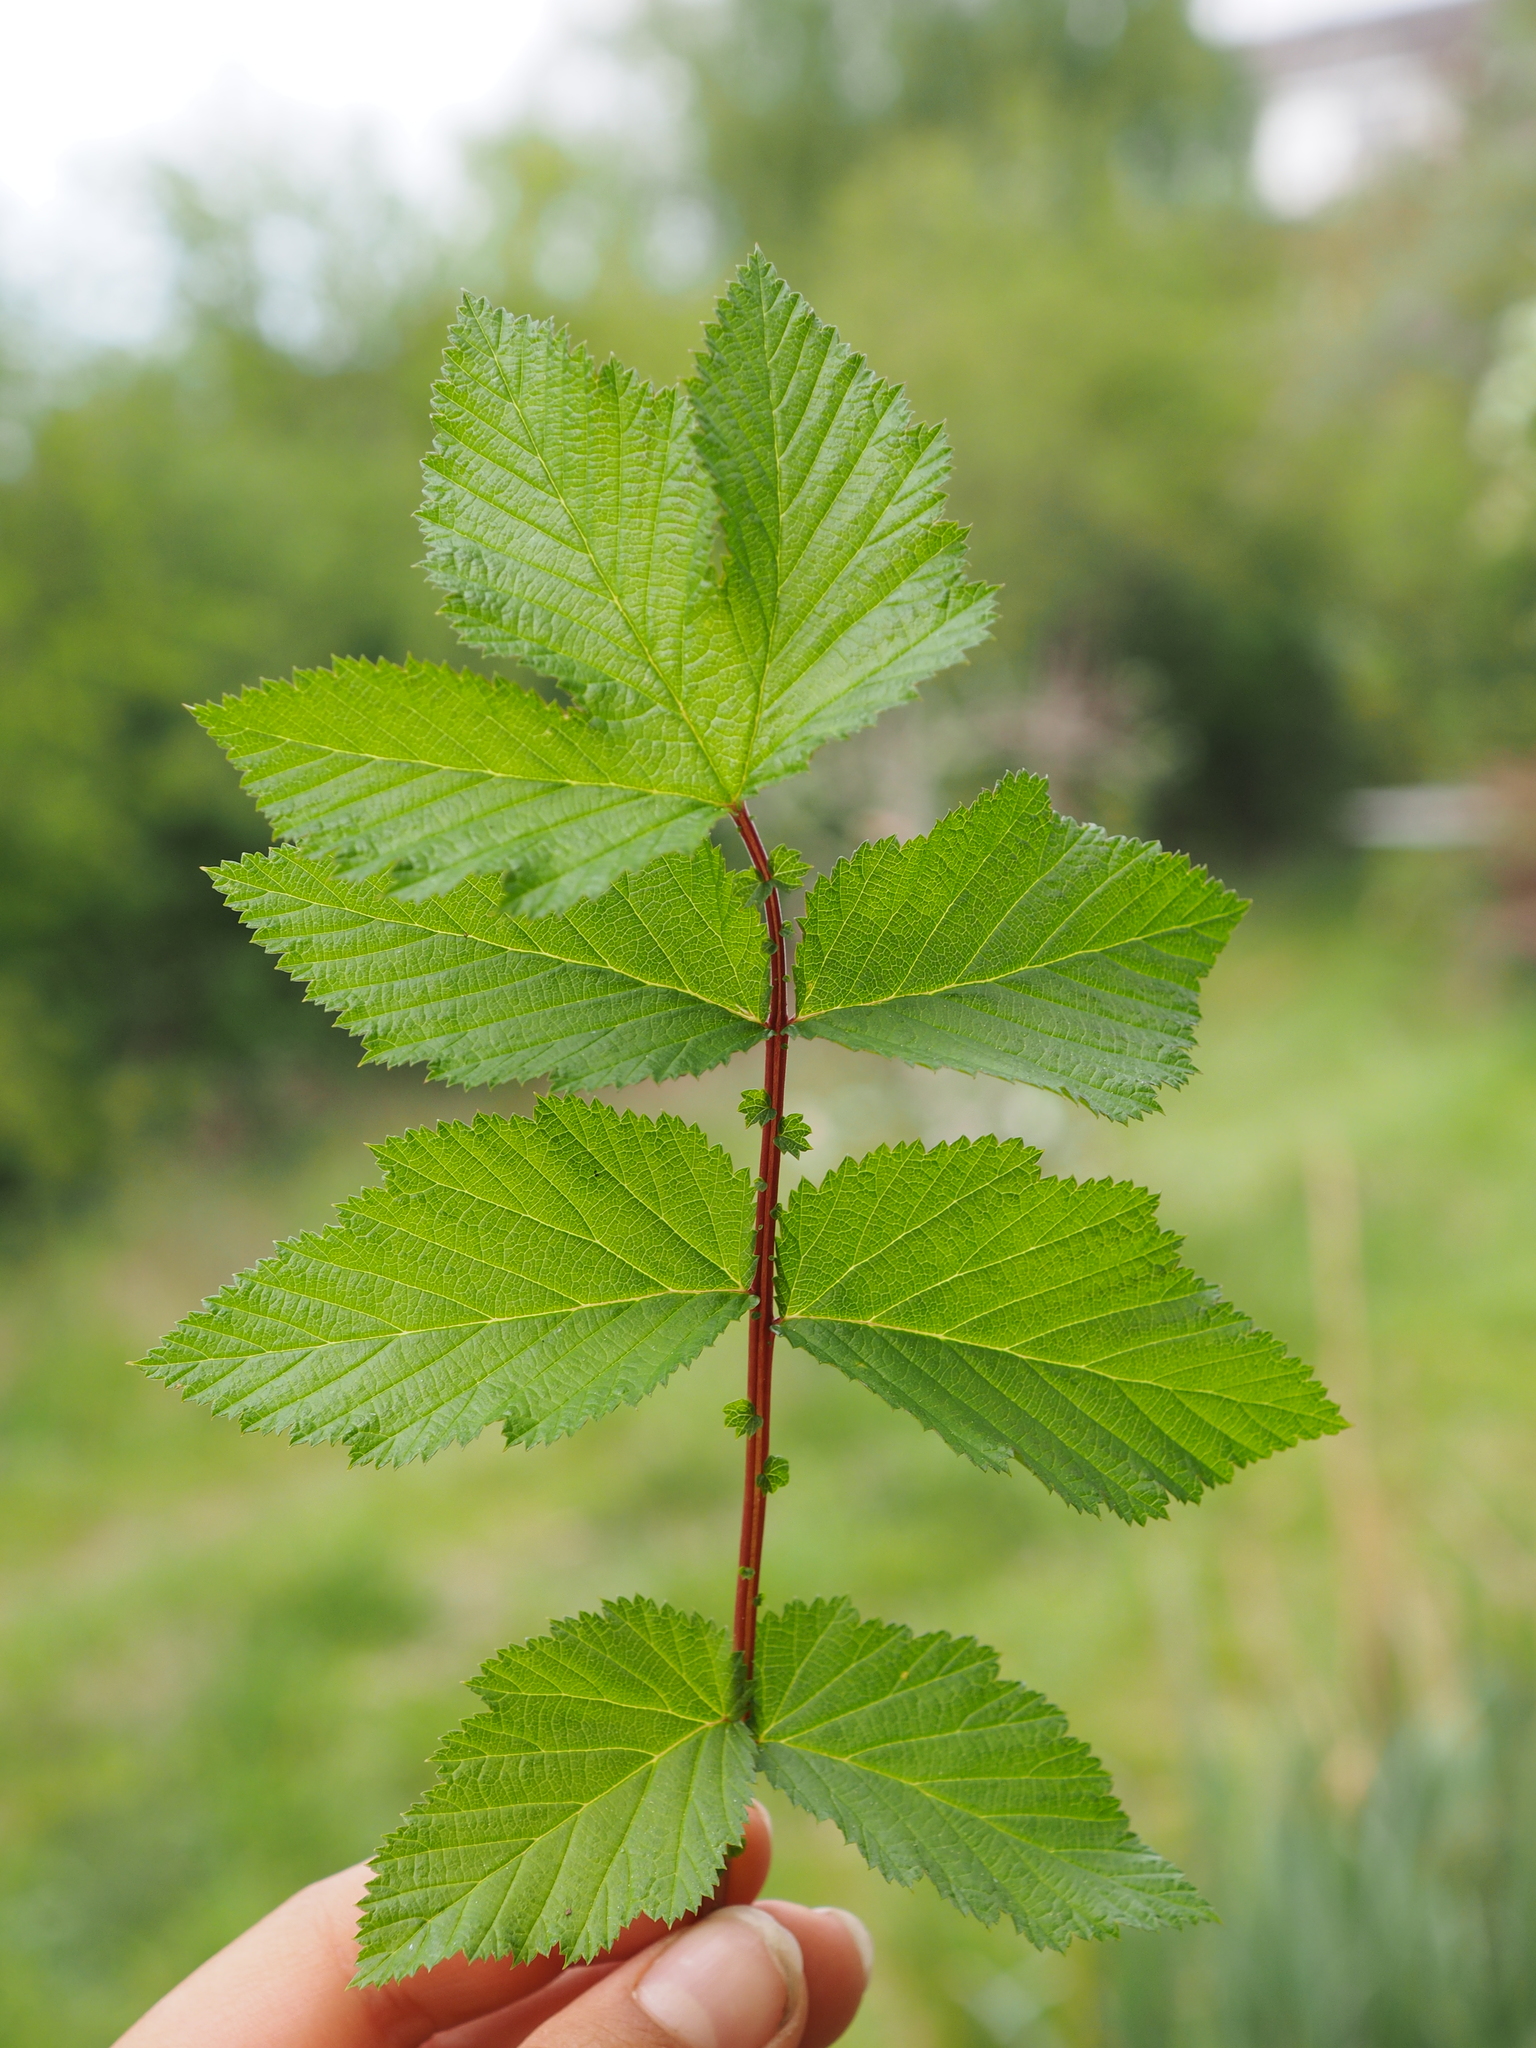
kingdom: Plantae
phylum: Tracheophyta
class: Magnoliopsida
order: Rosales
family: Rosaceae
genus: Filipendula
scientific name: Filipendula ulmaria
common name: Meadowsweet
